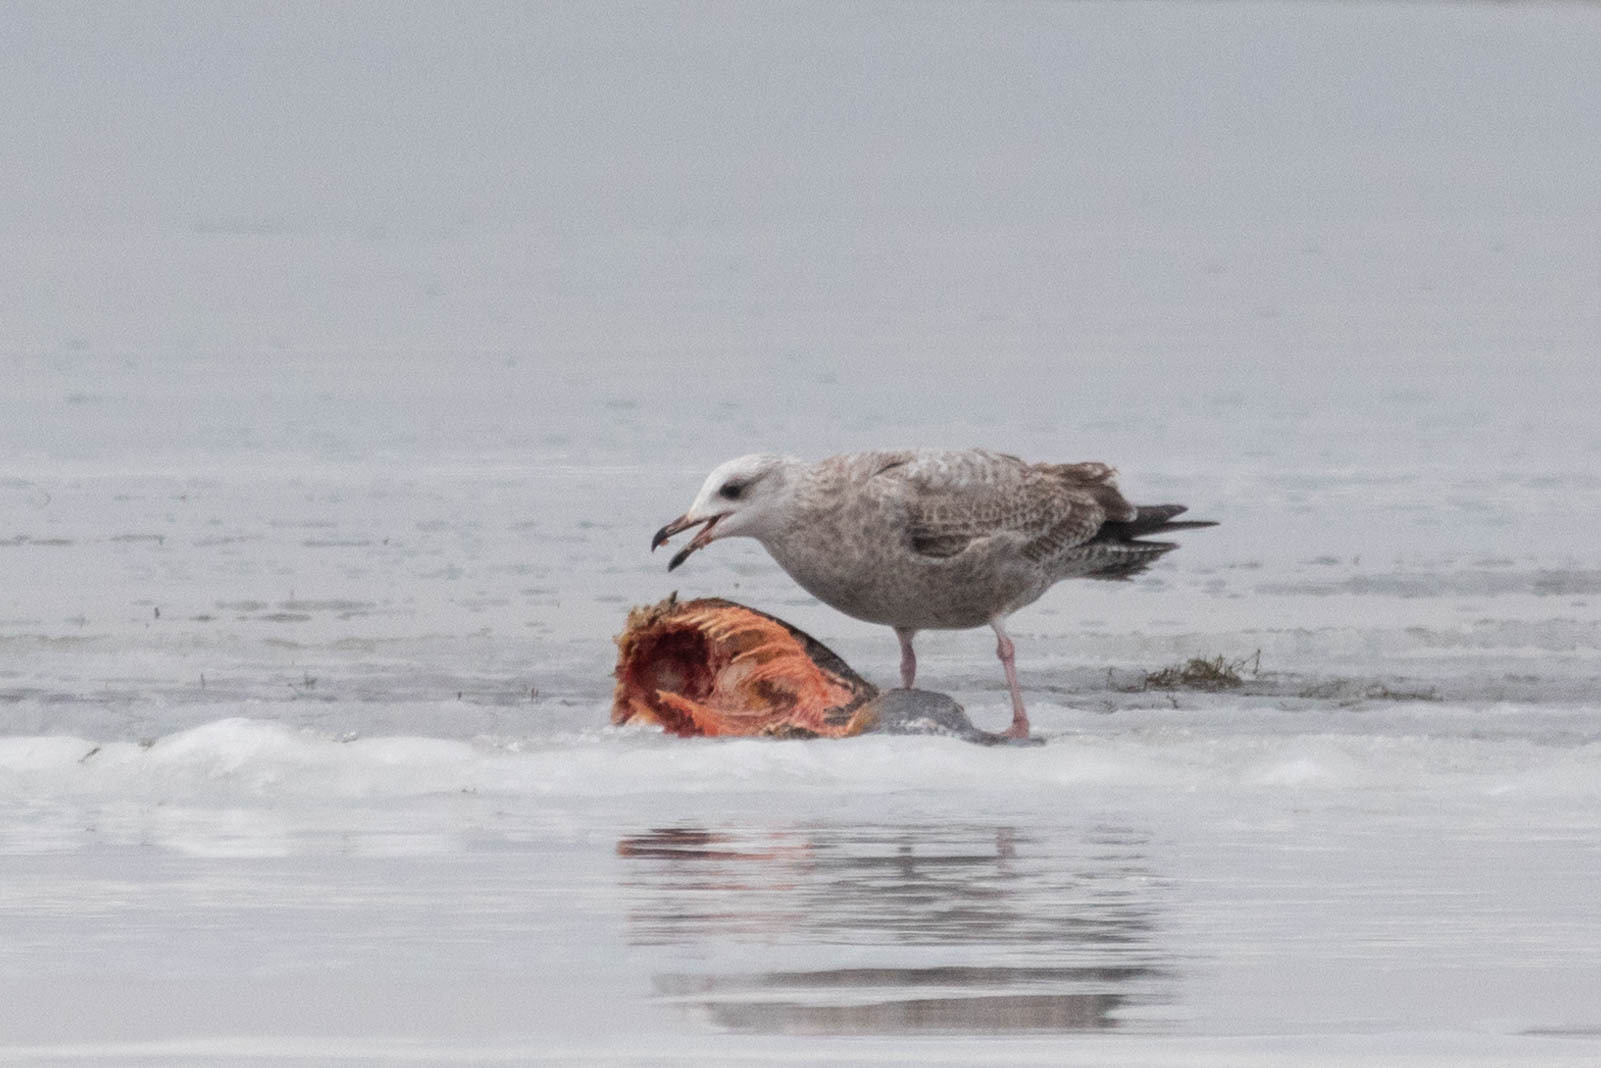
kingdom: Animalia
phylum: Chordata
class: Aves
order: Charadriiformes
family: Laridae
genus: Larus
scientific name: Larus argentatus
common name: Herring gull
